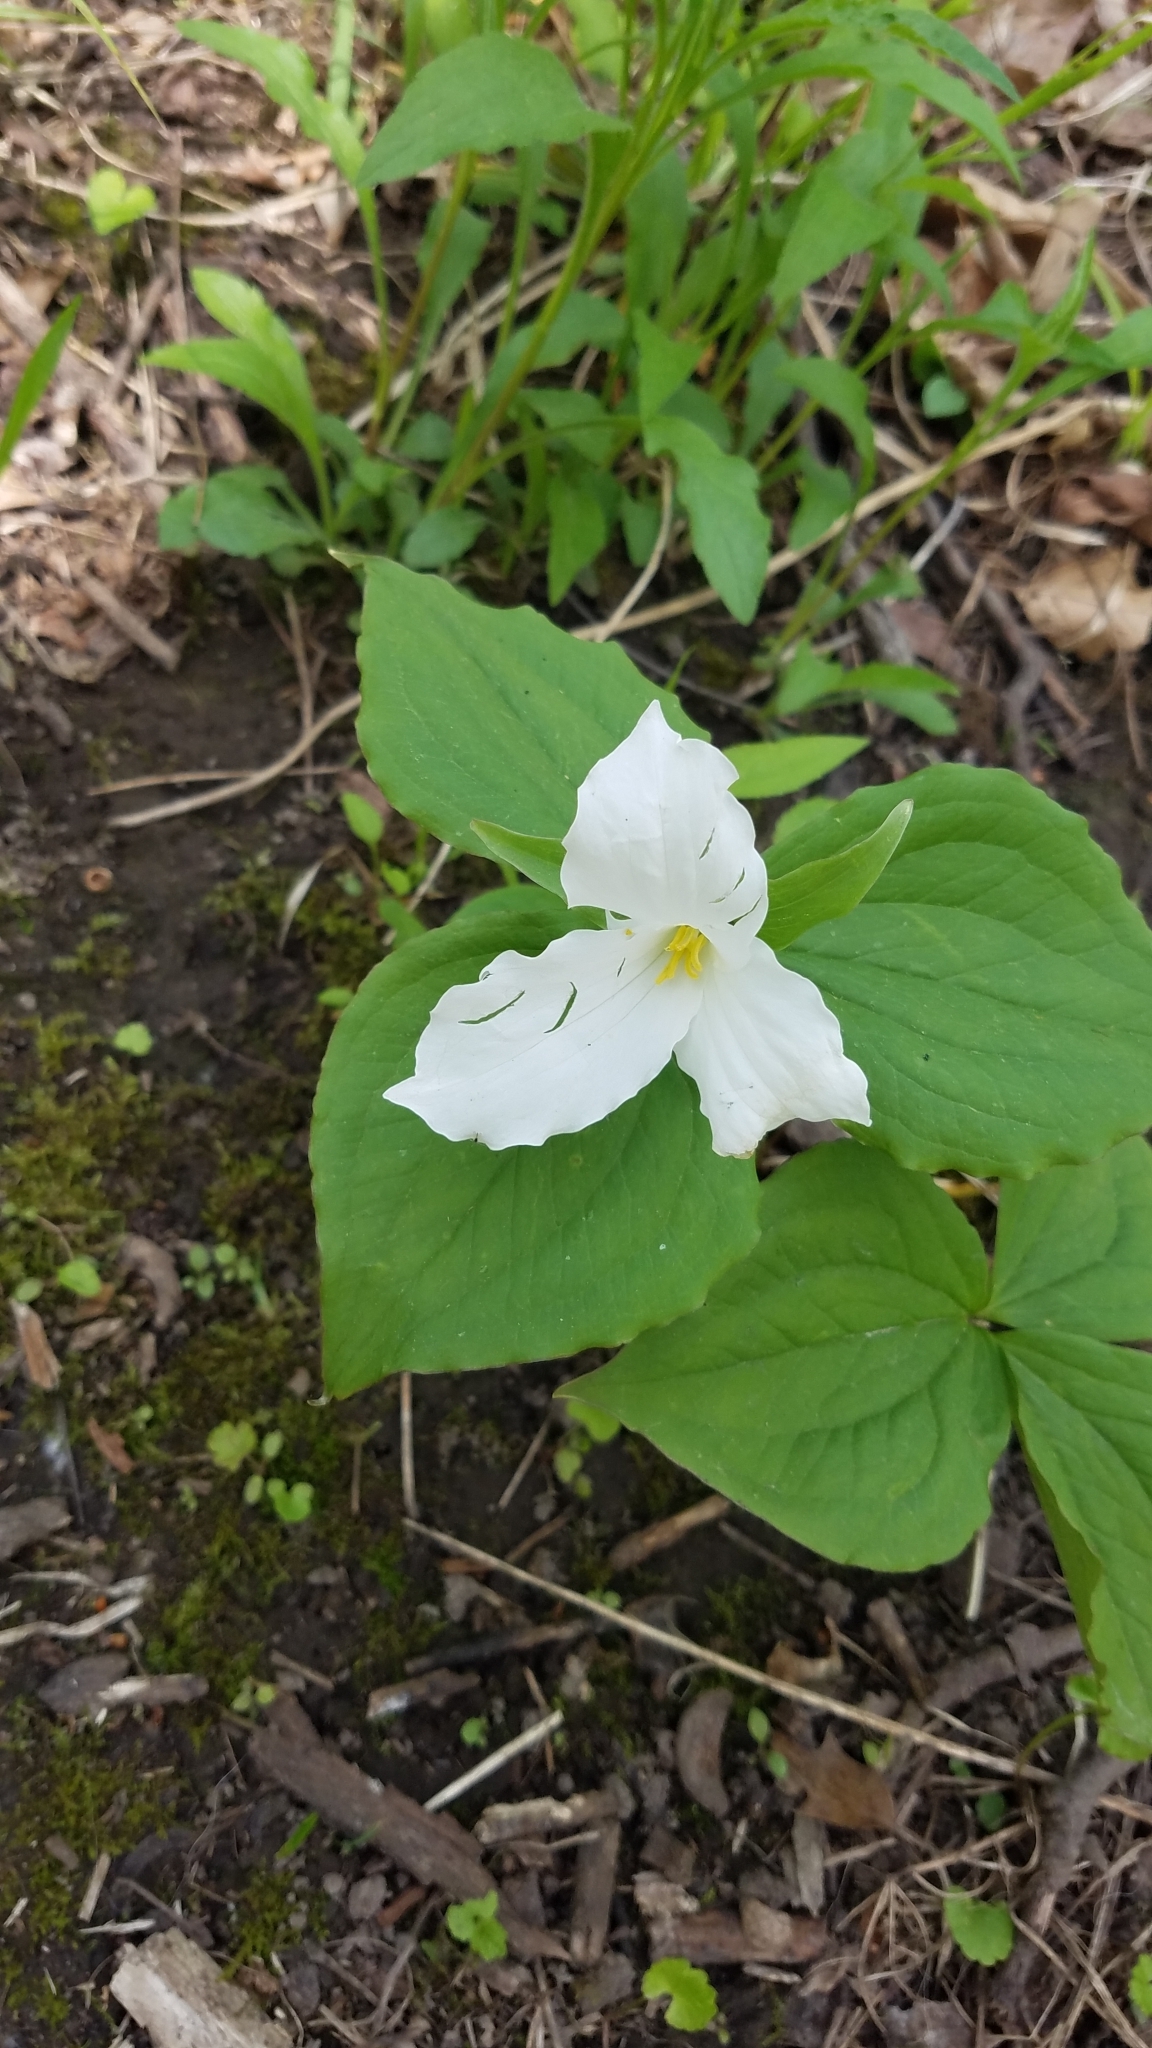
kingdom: Plantae
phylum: Tracheophyta
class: Liliopsida
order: Liliales
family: Melanthiaceae
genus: Trillium
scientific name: Trillium grandiflorum
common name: Great white trillium
